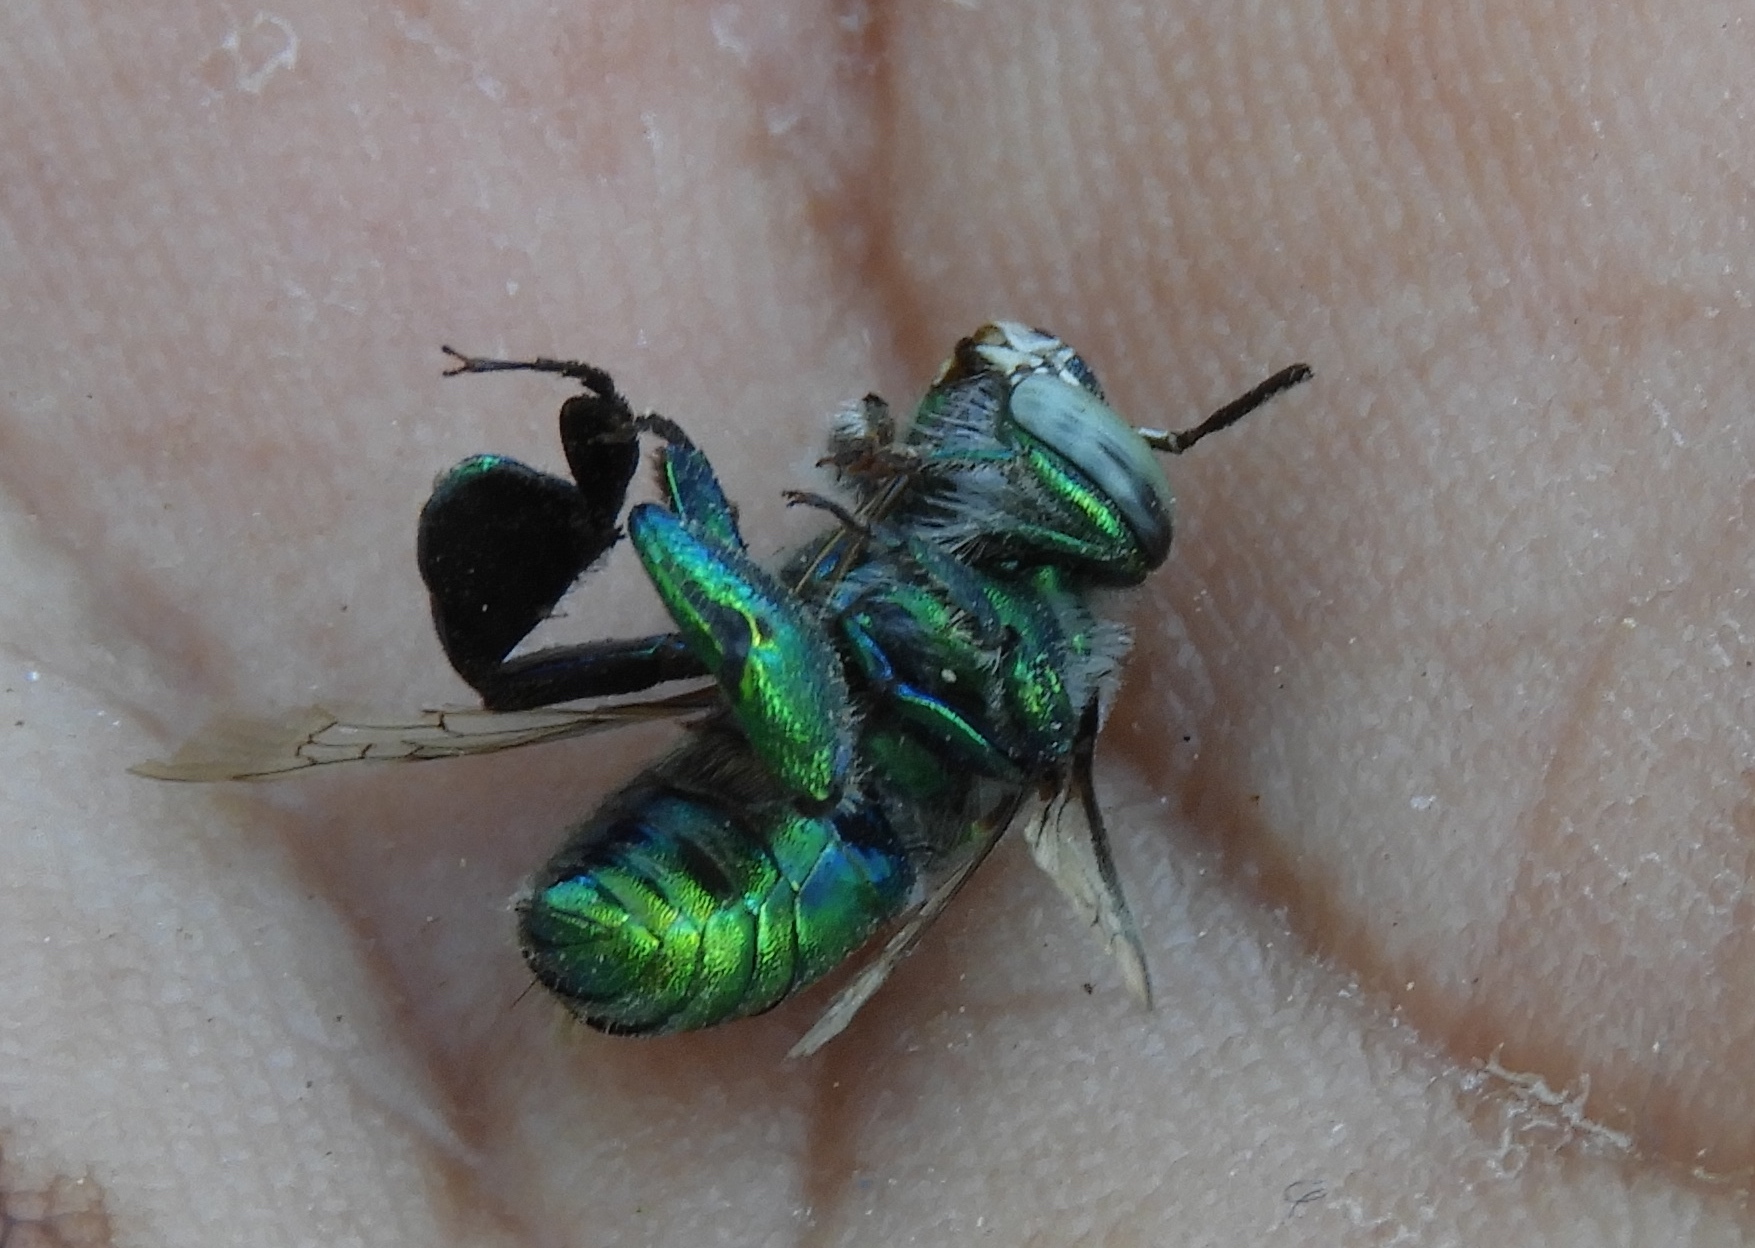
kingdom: Animalia
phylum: Arthropoda
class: Insecta
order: Hymenoptera
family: Apidae
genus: Euglossa
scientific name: Euglossa
